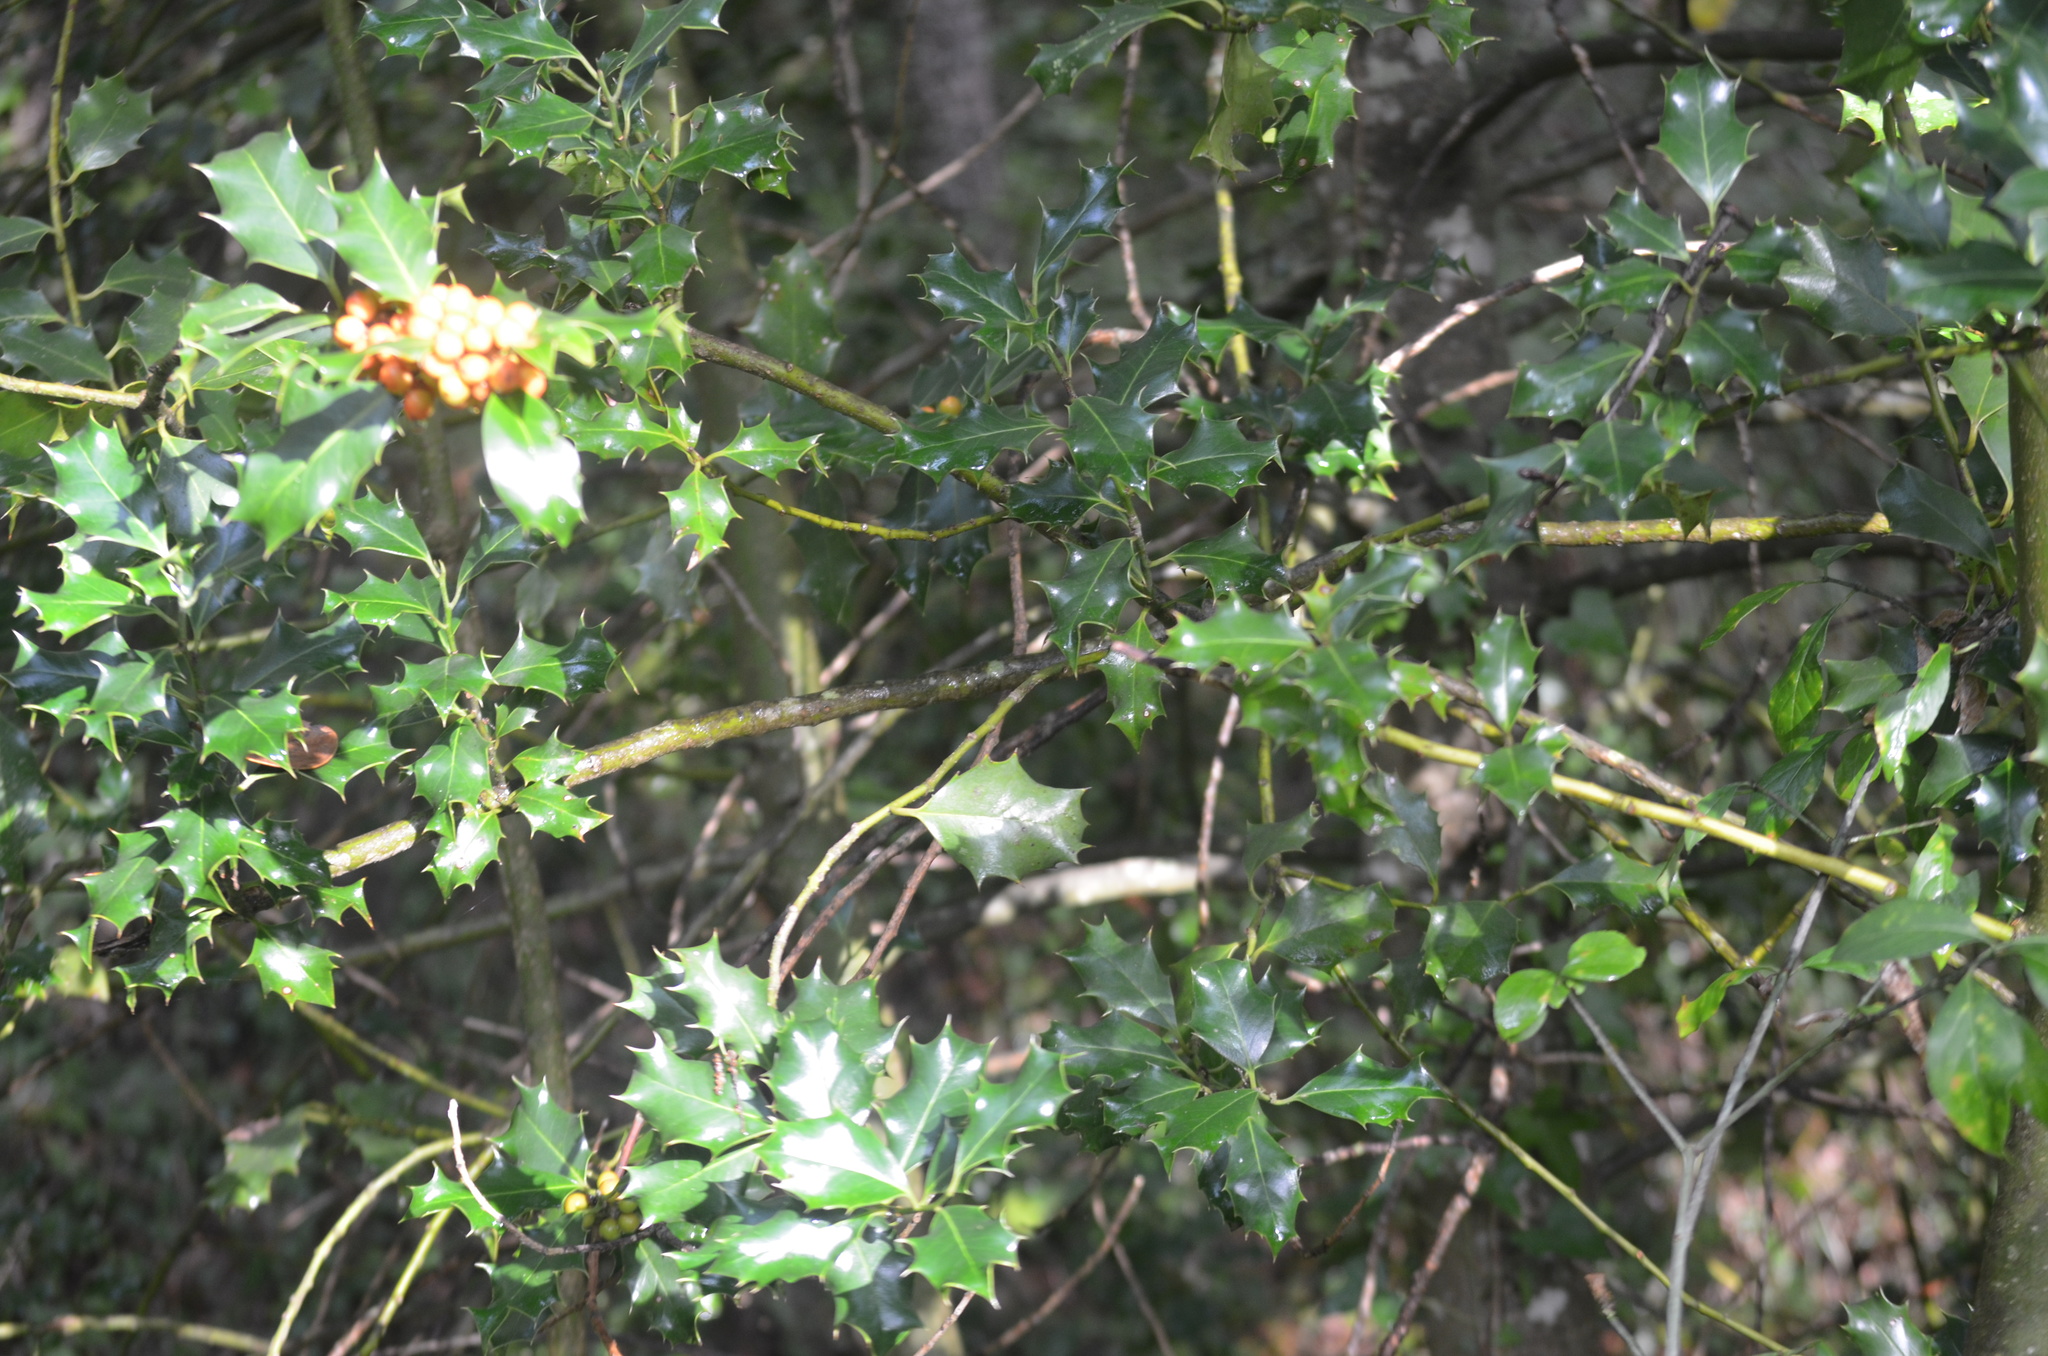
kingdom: Plantae
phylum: Tracheophyta
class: Magnoliopsida
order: Aquifoliales
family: Aquifoliaceae
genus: Ilex
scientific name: Ilex aquifolium
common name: English holly
